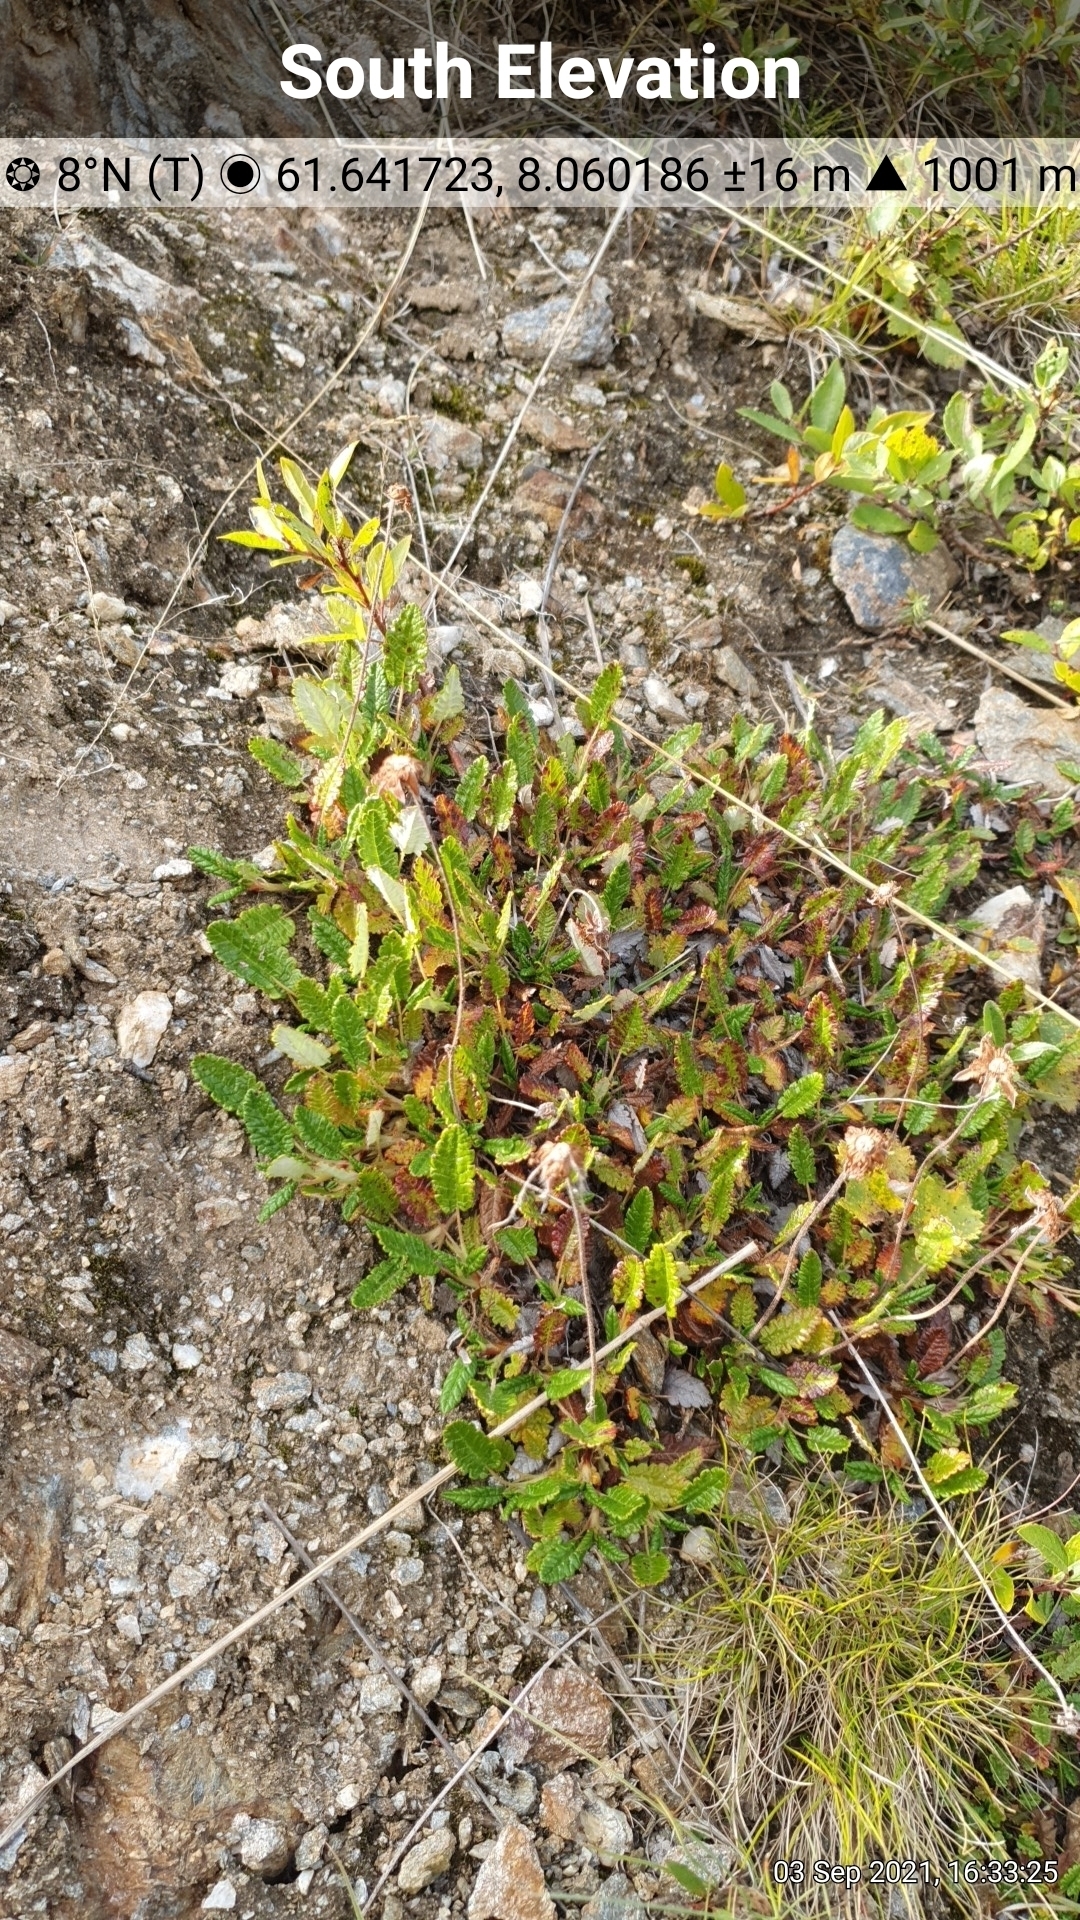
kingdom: Plantae
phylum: Tracheophyta
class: Magnoliopsida
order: Rosales
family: Rosaceae
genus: Dryas
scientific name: Dryas octopetala
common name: Eight-petal mountain-avens
